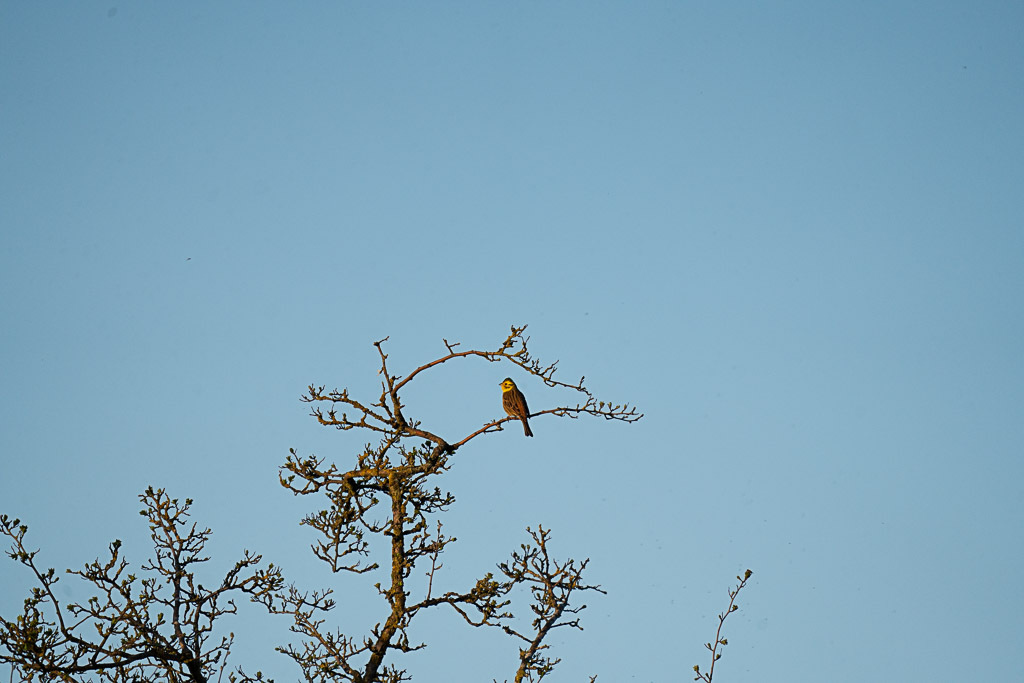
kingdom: Animalia
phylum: Chordata
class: Aves
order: Passeriformes
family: Emberizidae
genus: Emberiza
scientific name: Emberiza citrinella
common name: Yellowhammer
